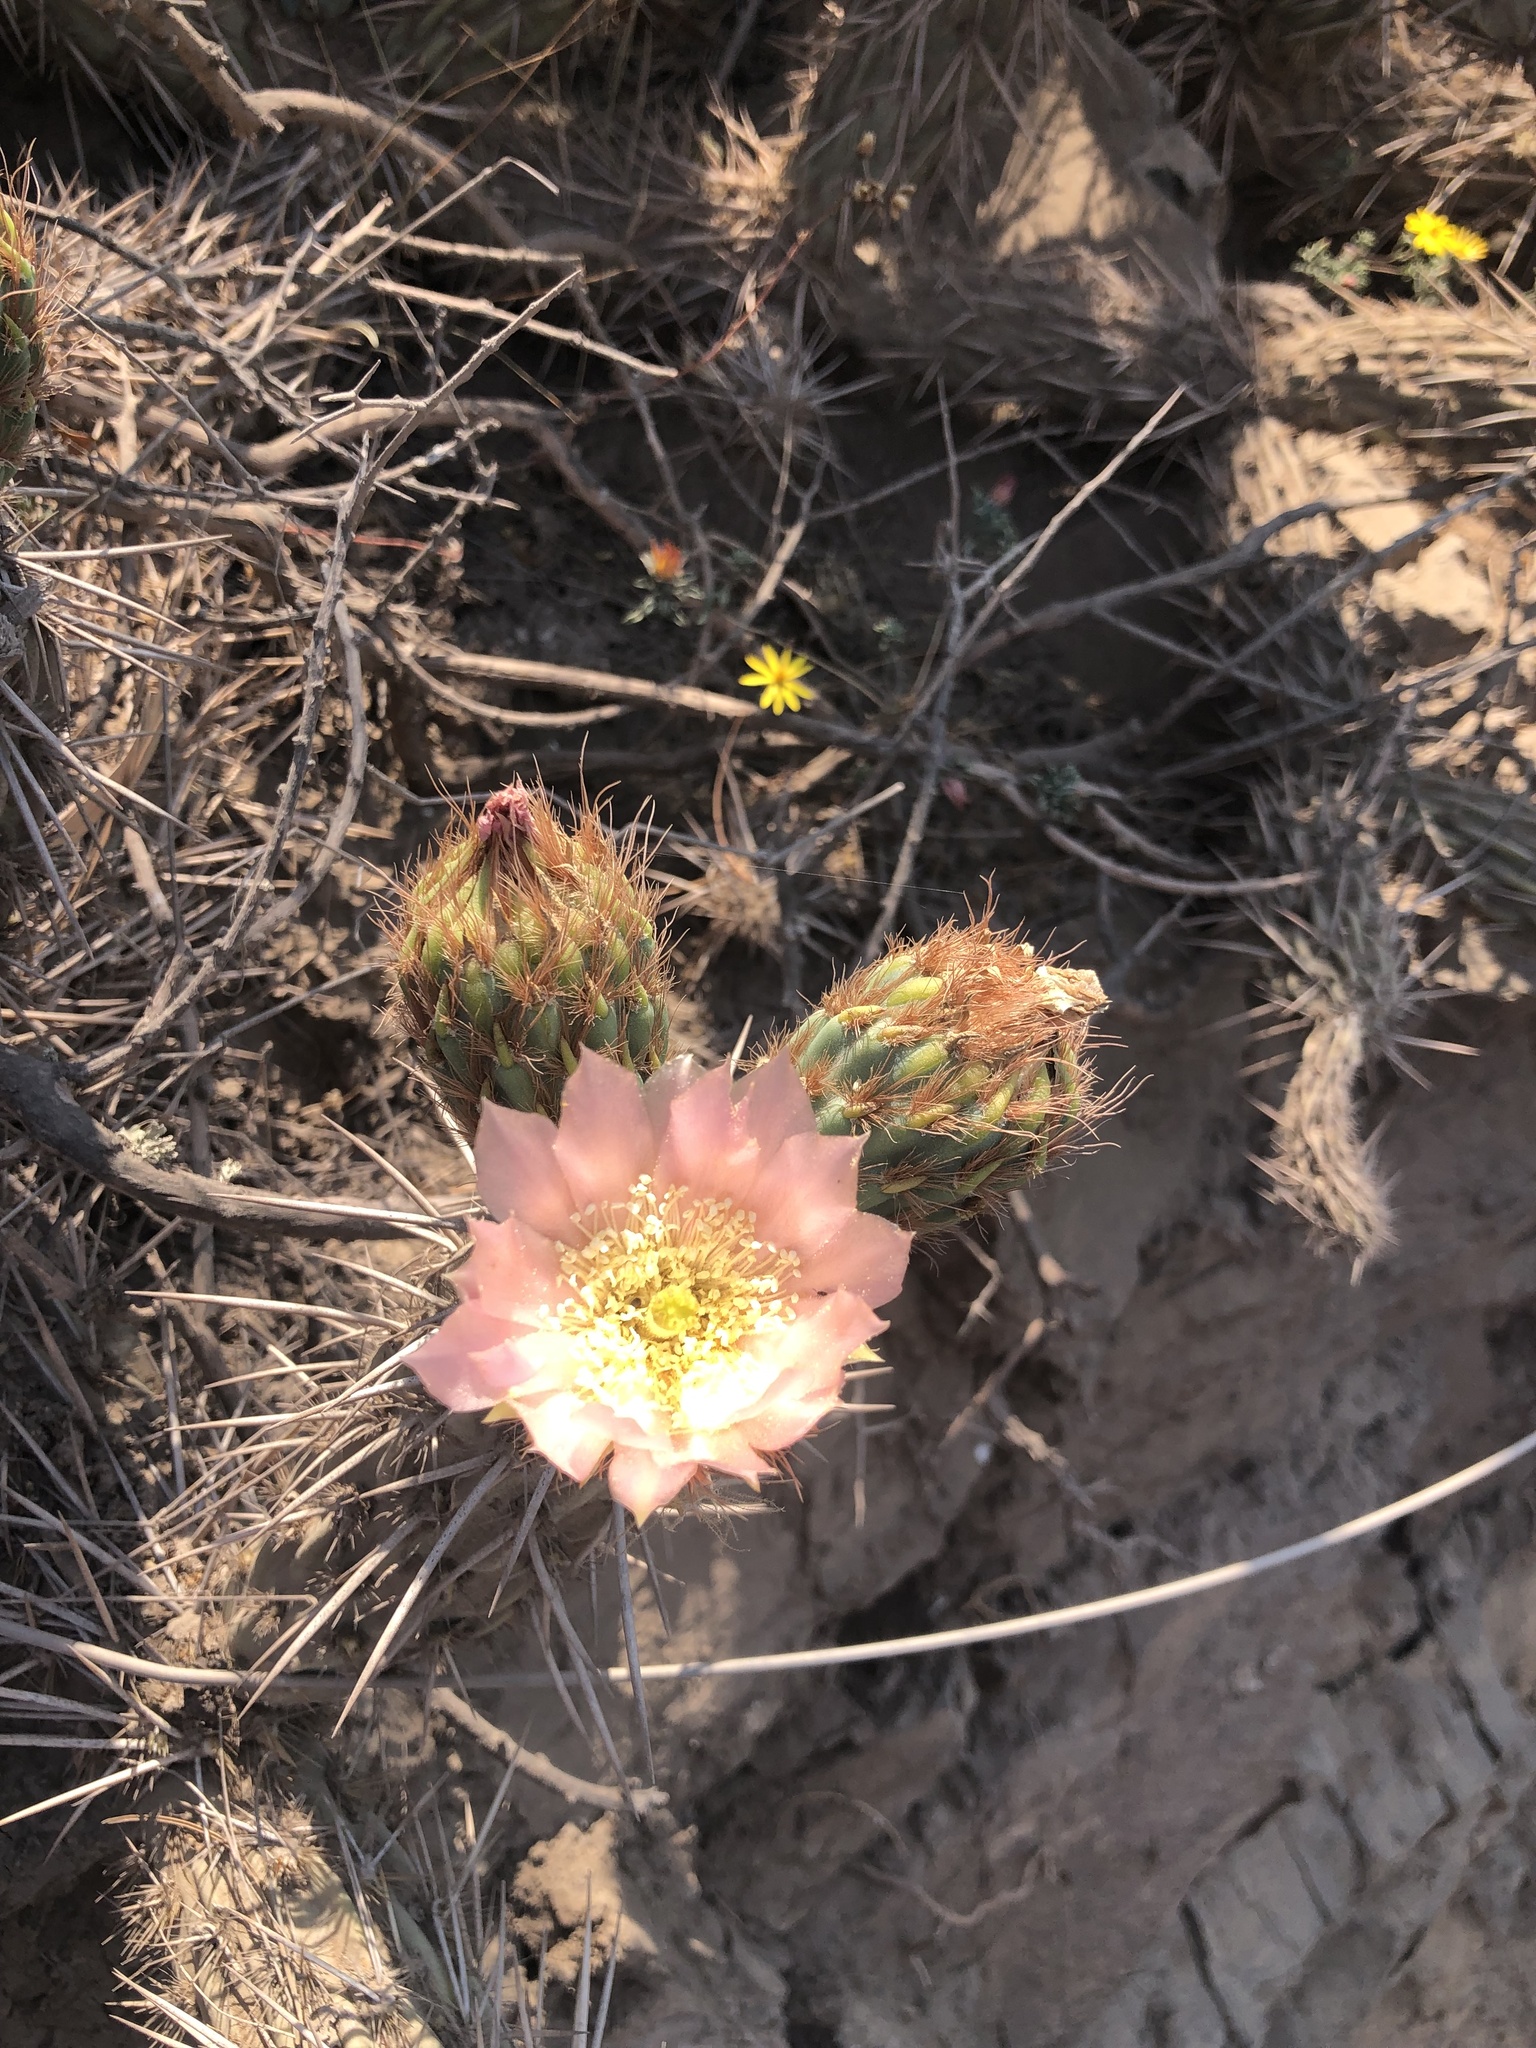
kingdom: Plantae
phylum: Tracheophyta
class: Magnoliopsida
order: Caryophyllales
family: Cactaceae
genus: Miqueliopuntia
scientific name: Miqueliopuntia miquelii
